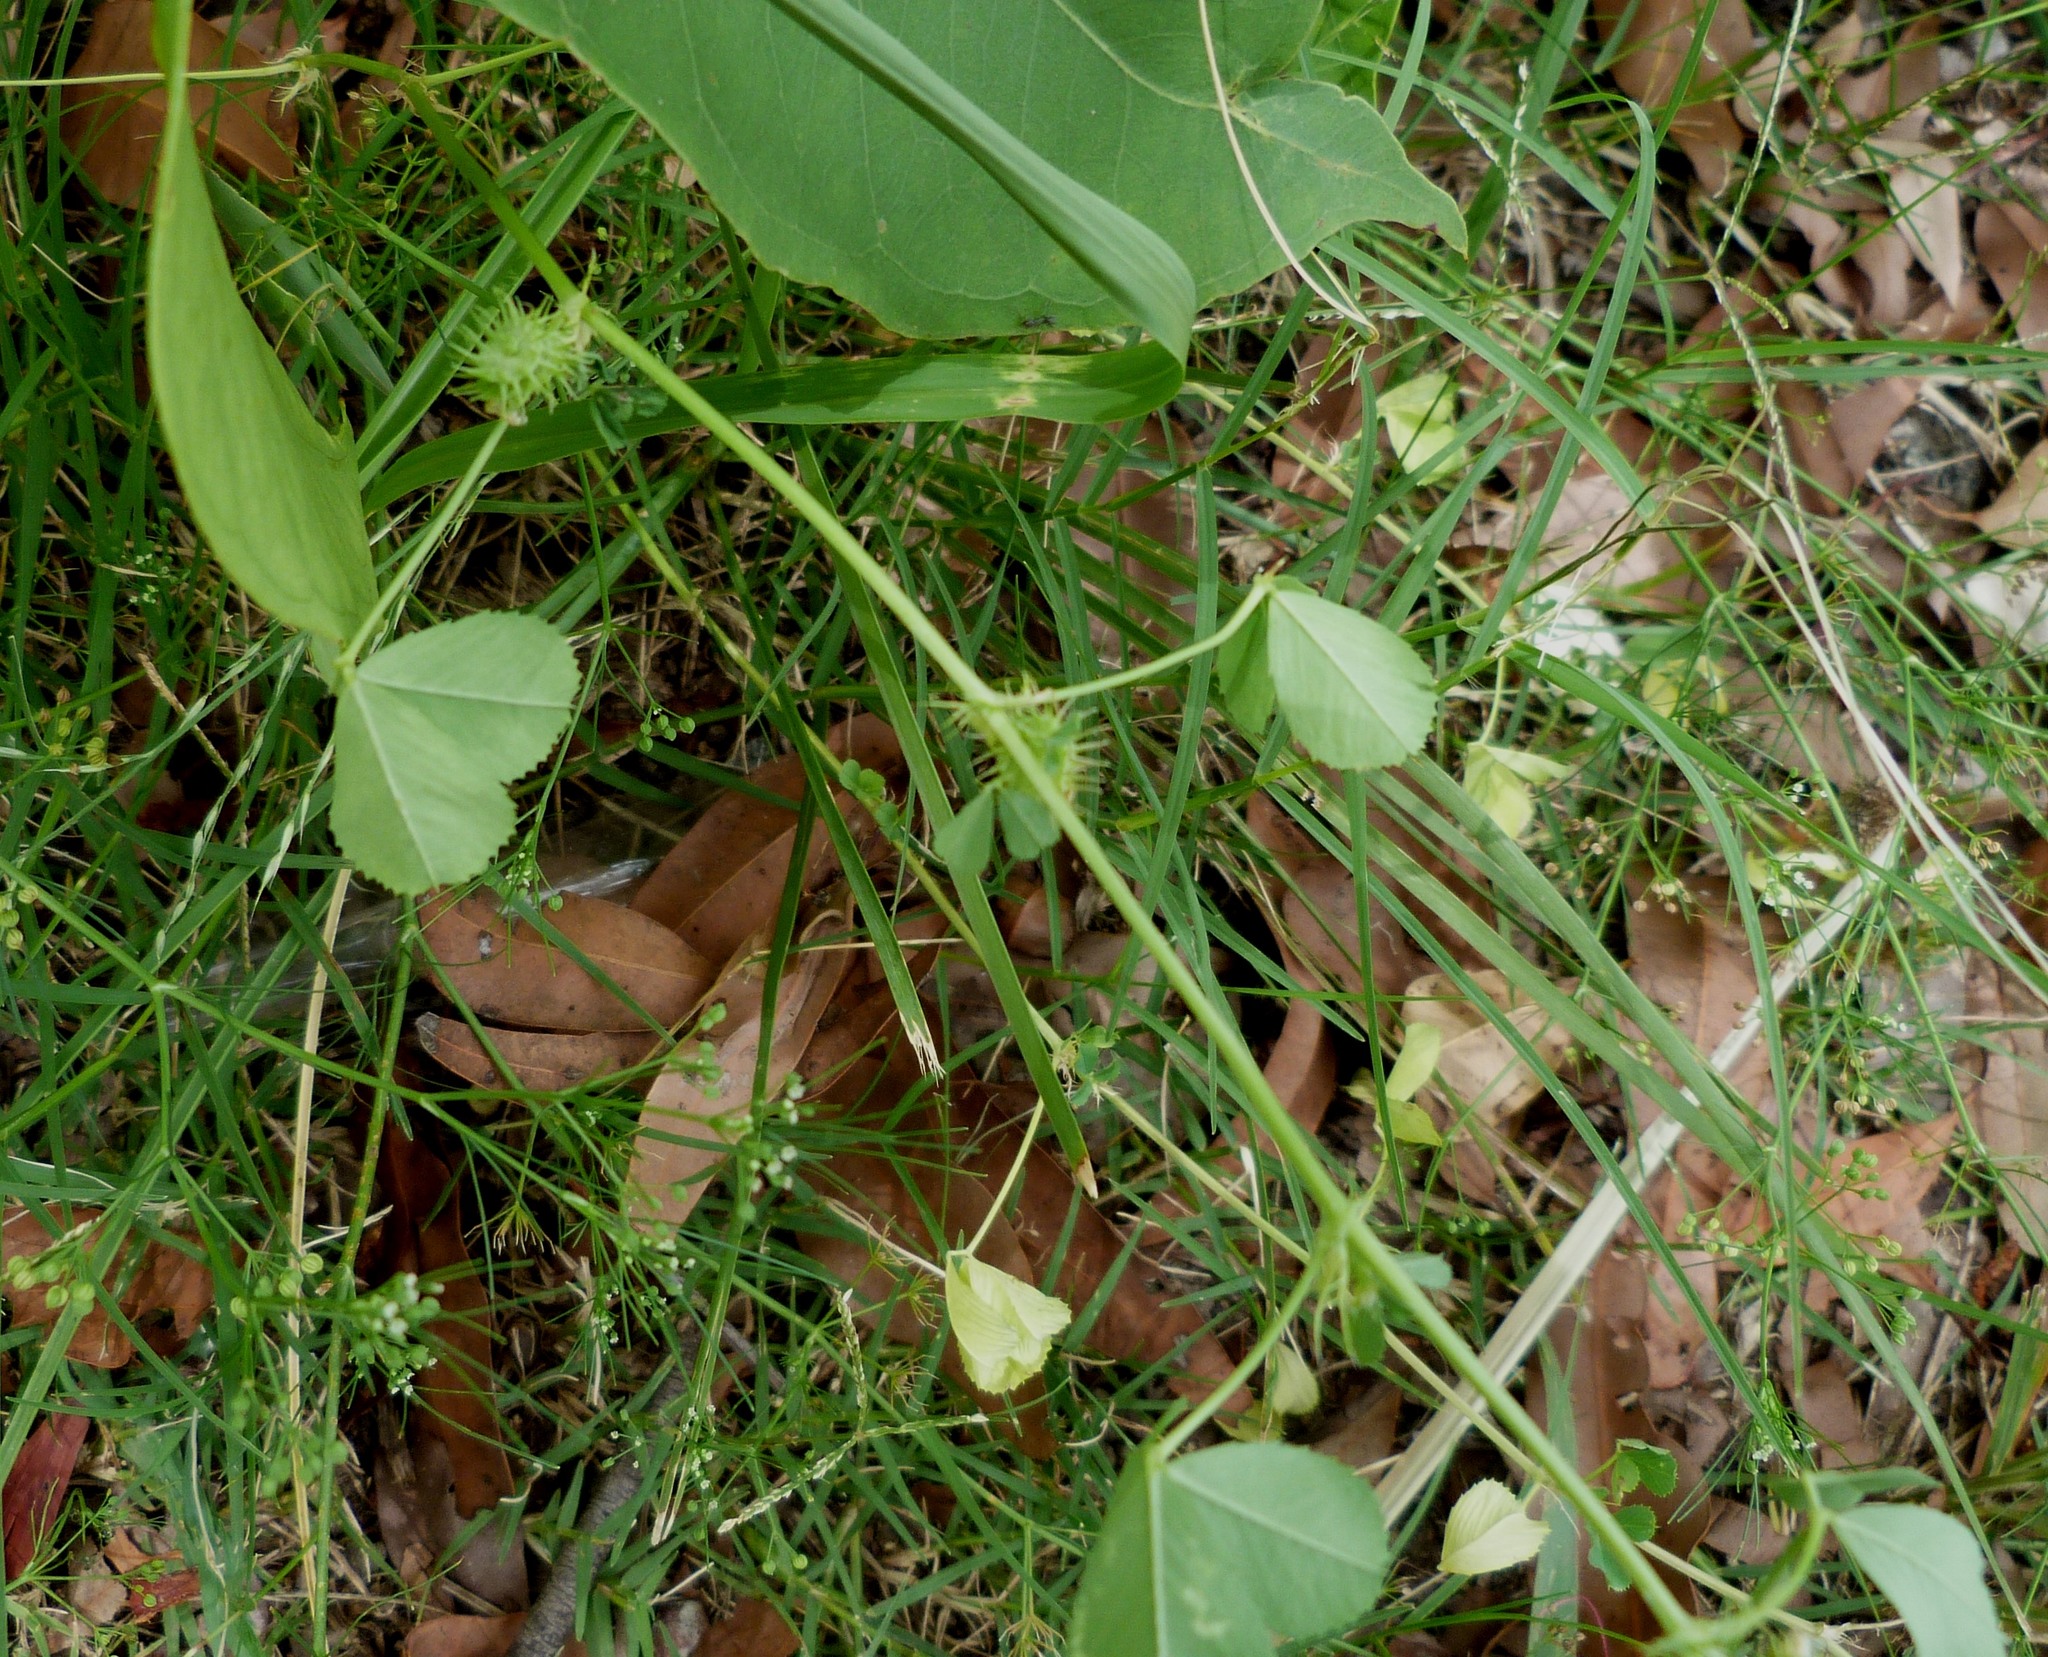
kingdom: Plantae
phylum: Tracheophyta
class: Magnoliopsida
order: Fabales
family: Fabaceae
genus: Medicago
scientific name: Medicago polymorpha
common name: Burclover
